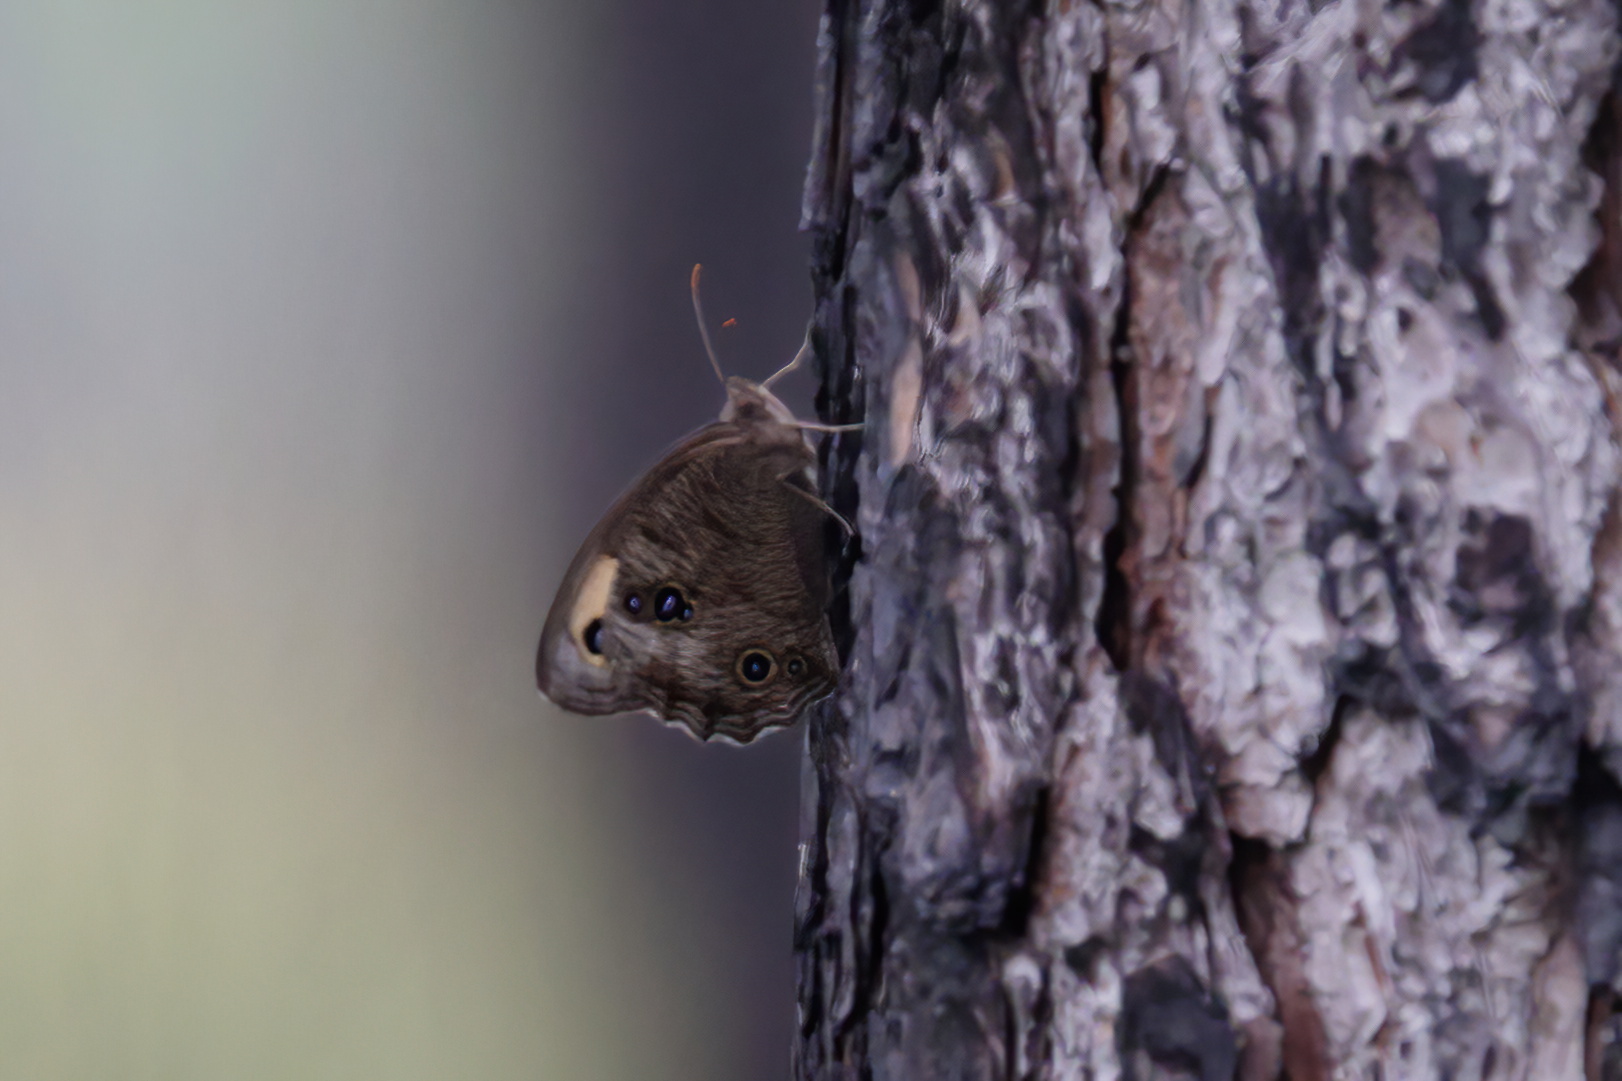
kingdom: Animalia
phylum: Arthropoda
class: Insecta
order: Lepidoptera
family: Nymphalidae
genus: Cercyonis
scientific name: Cercyonis pegala
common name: Common wood-nymph
